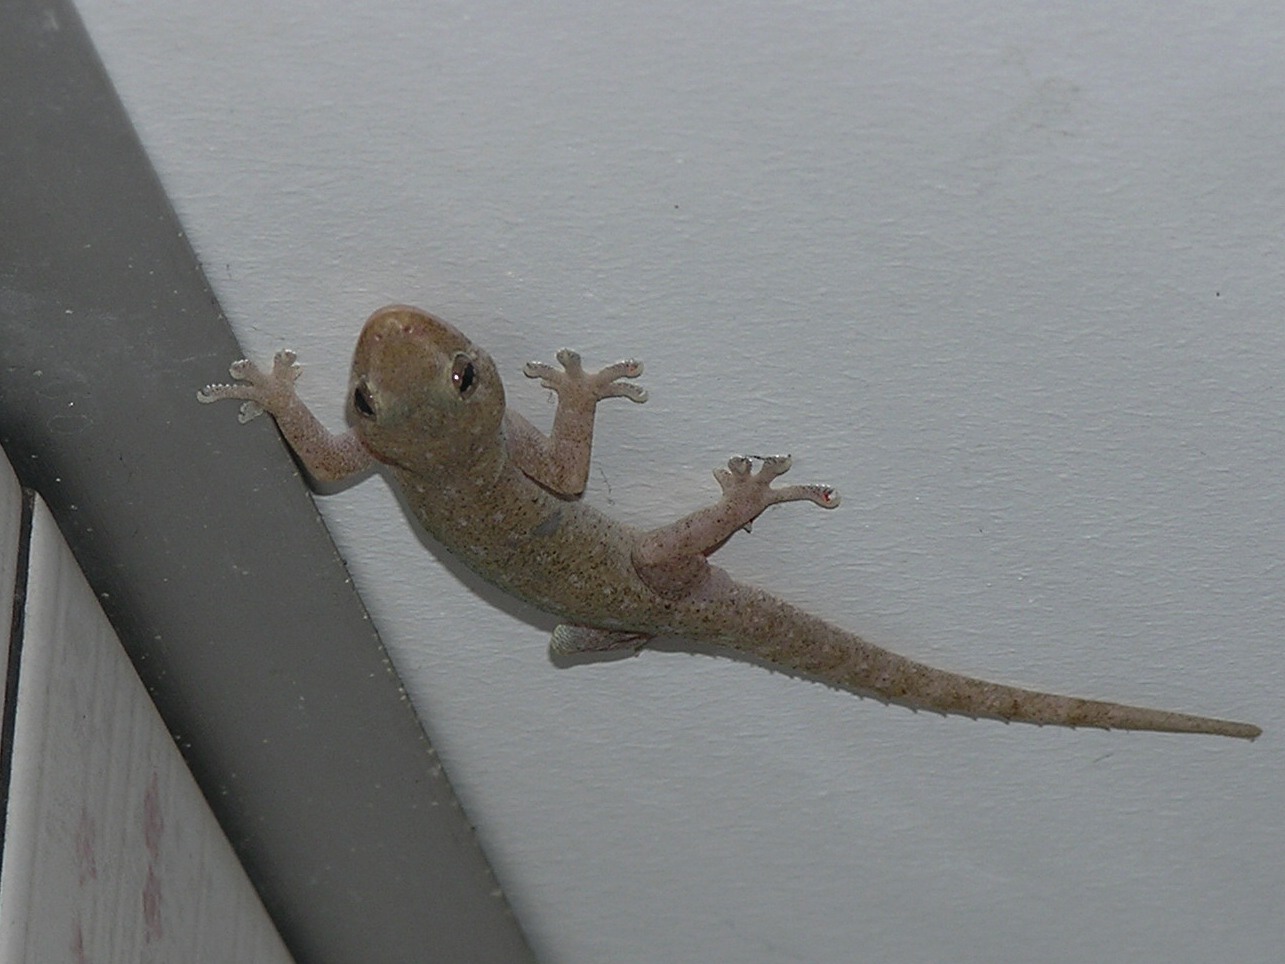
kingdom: Animalia
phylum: Chordata
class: Squamata
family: Gekkonidae
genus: Hemidactylus
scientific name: Hemidactylus frenatus
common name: Common house gecko
